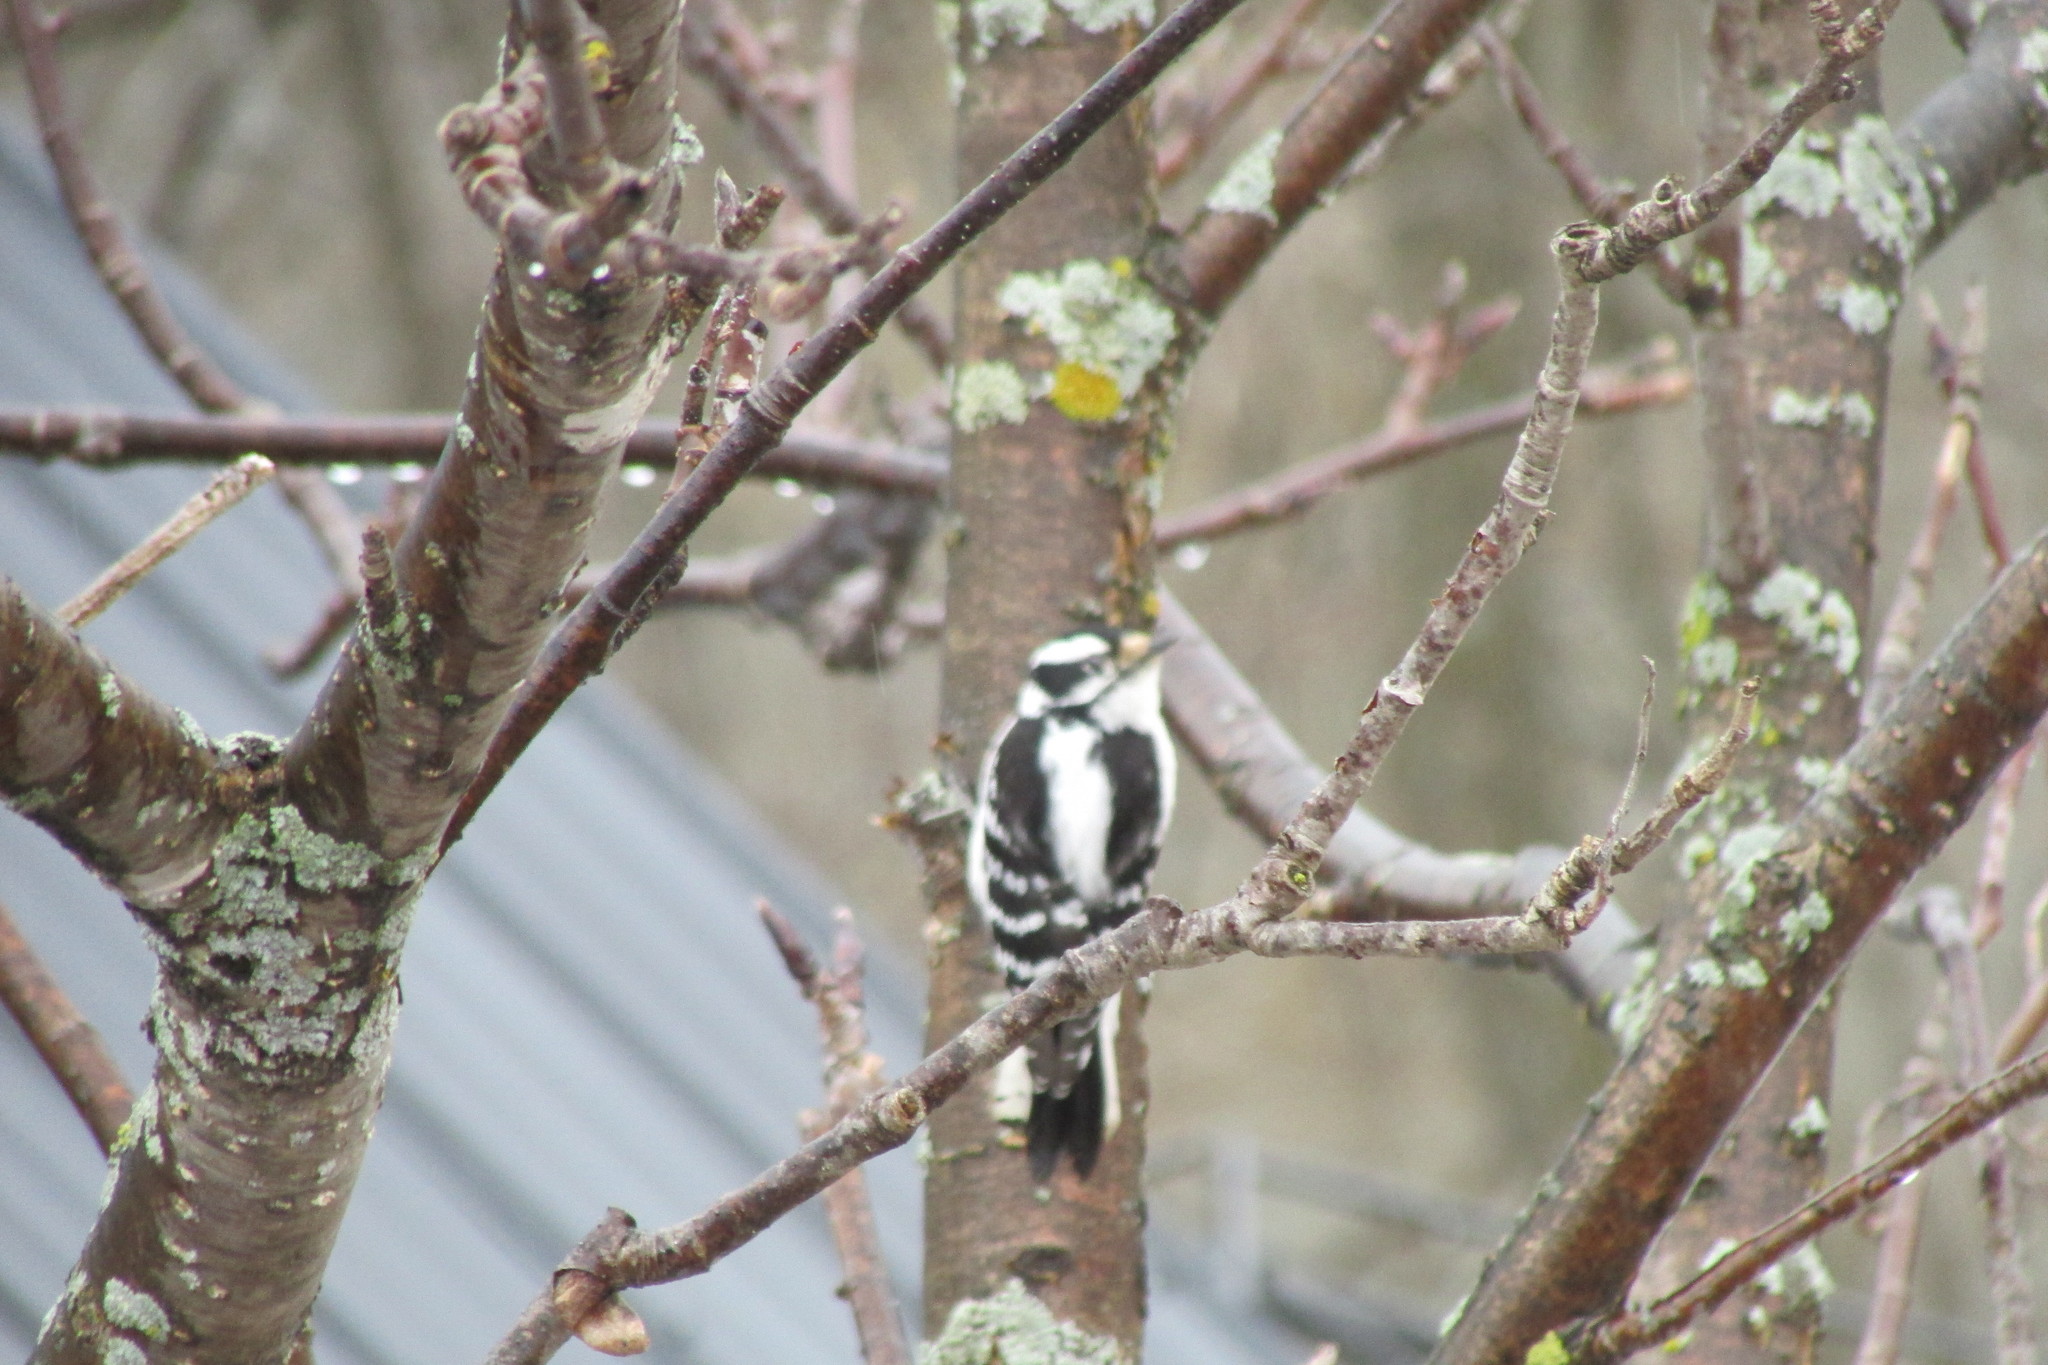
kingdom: Animalia
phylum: Chordata
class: Aves
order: Piciformes
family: Picidae
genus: Dryobates
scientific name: Dryobates pubescens
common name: Downy woodpecker
